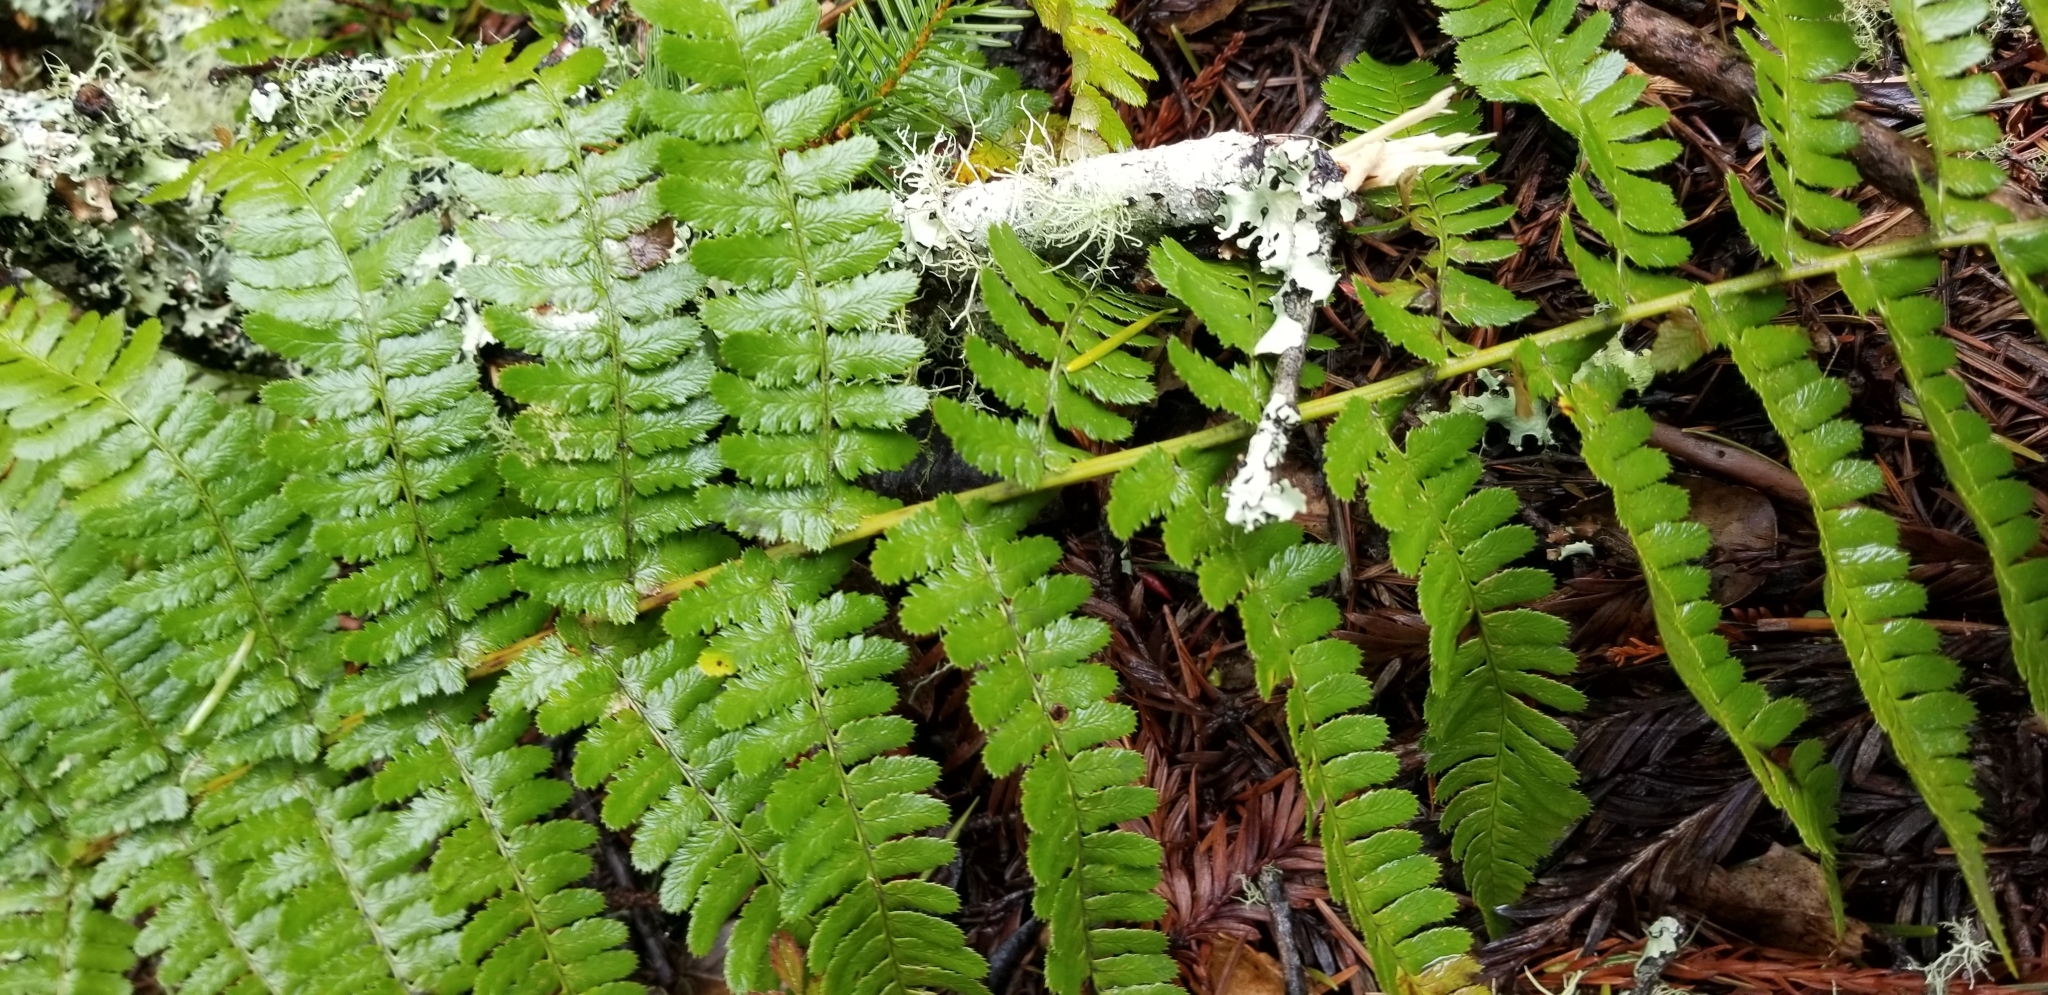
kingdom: Plantae
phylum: Tracheophyta
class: Polypodiopsida
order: Polypodiales
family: Dryopteridaceae
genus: Dryopteris
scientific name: Dryopteris arguta
